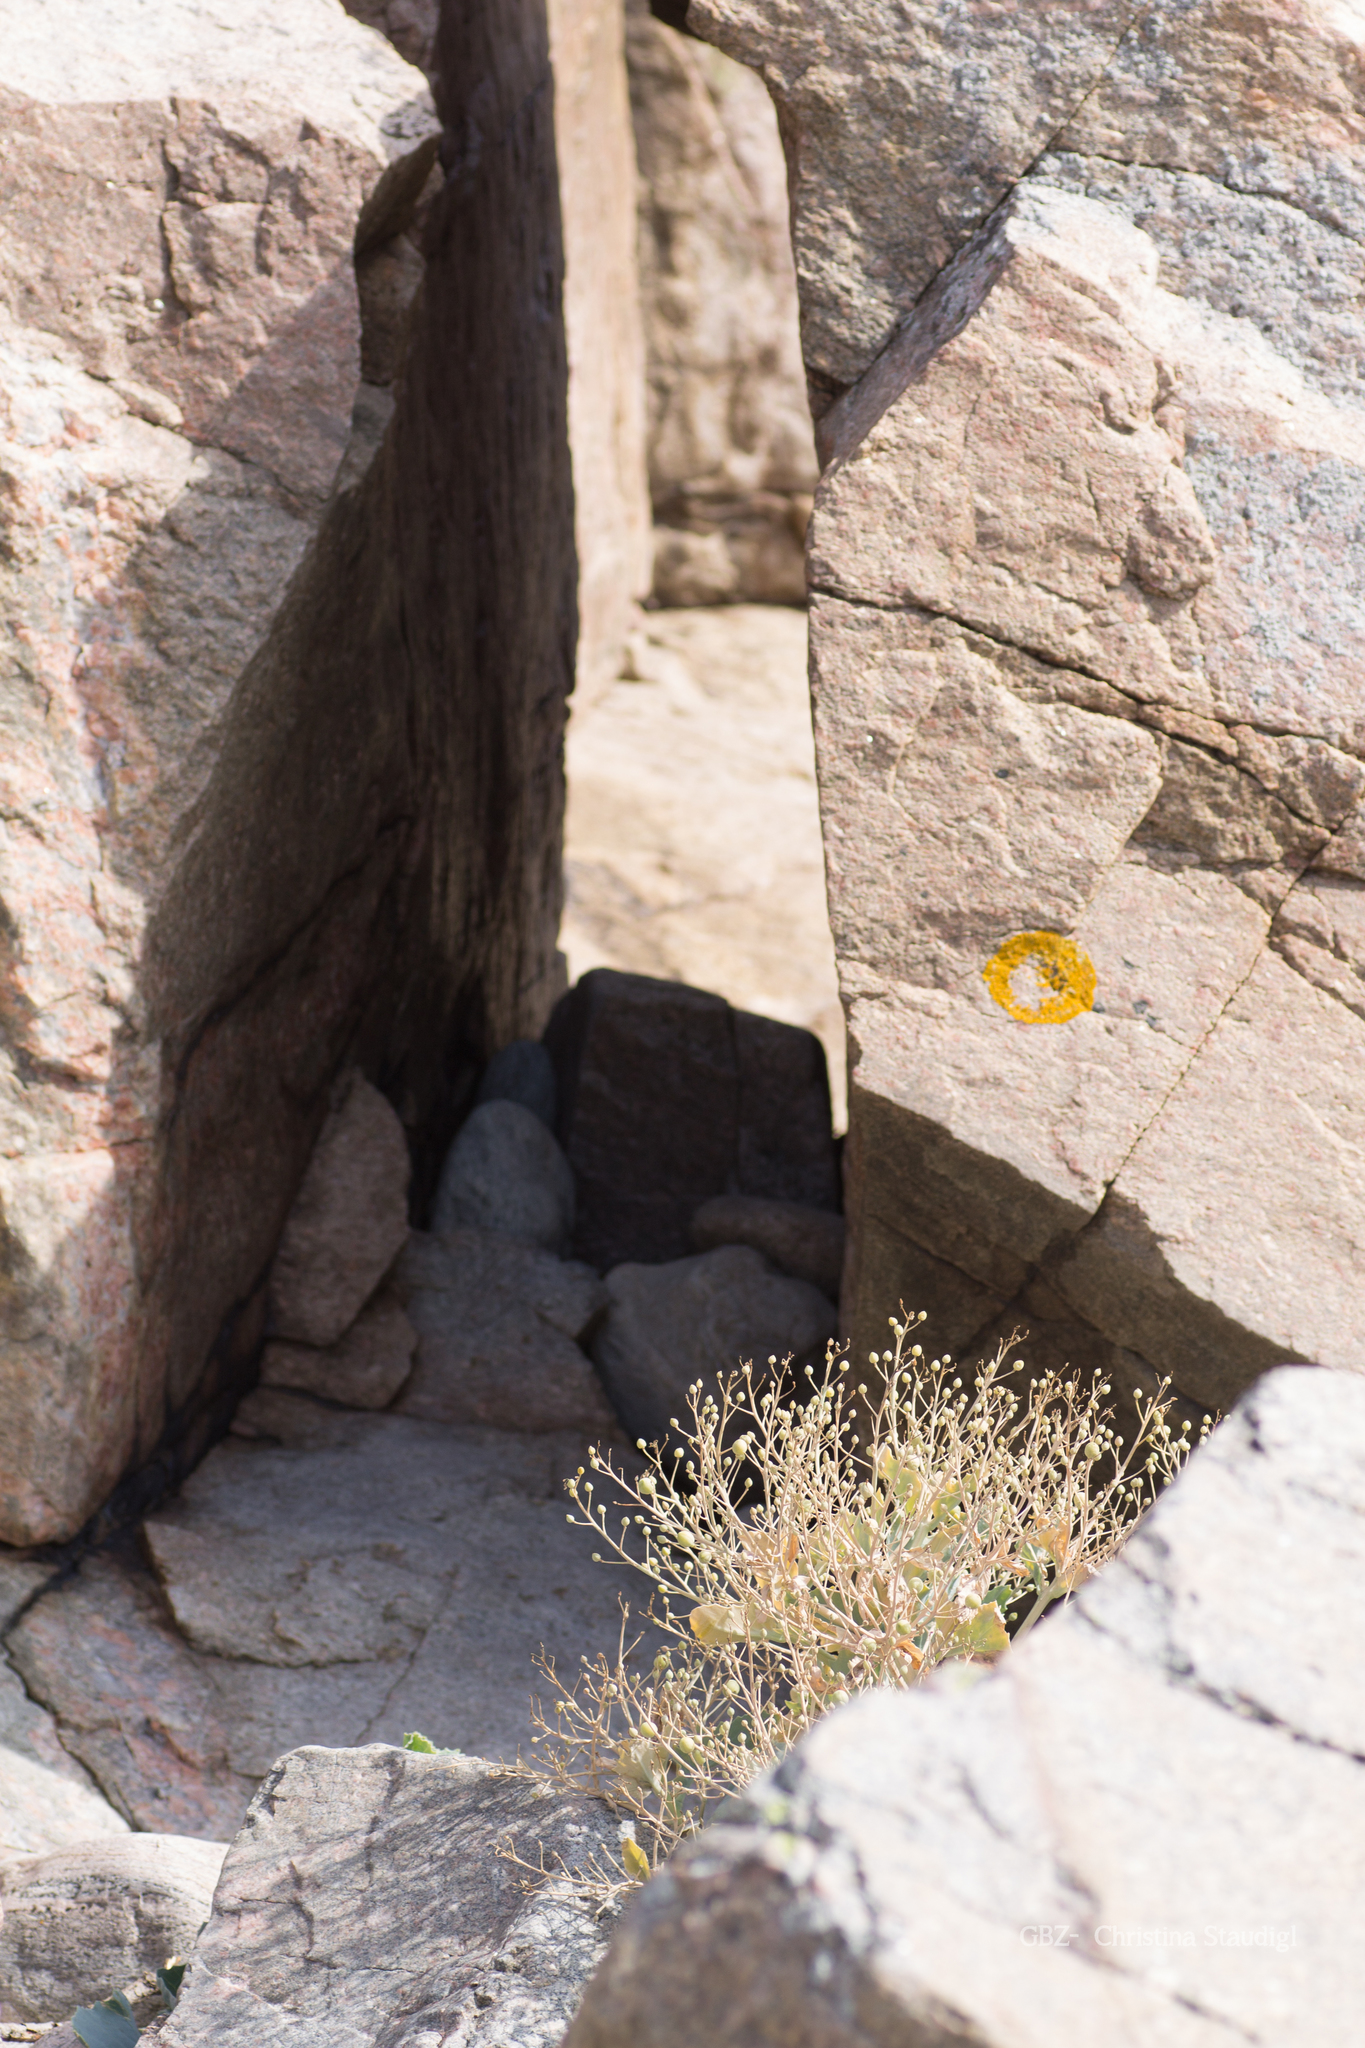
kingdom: Plantae
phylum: Tracheophyta
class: Magnoliopsida
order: Brassicales
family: Brassicaceae
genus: Crambe
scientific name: Crambe maritima
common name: Sea-kale
